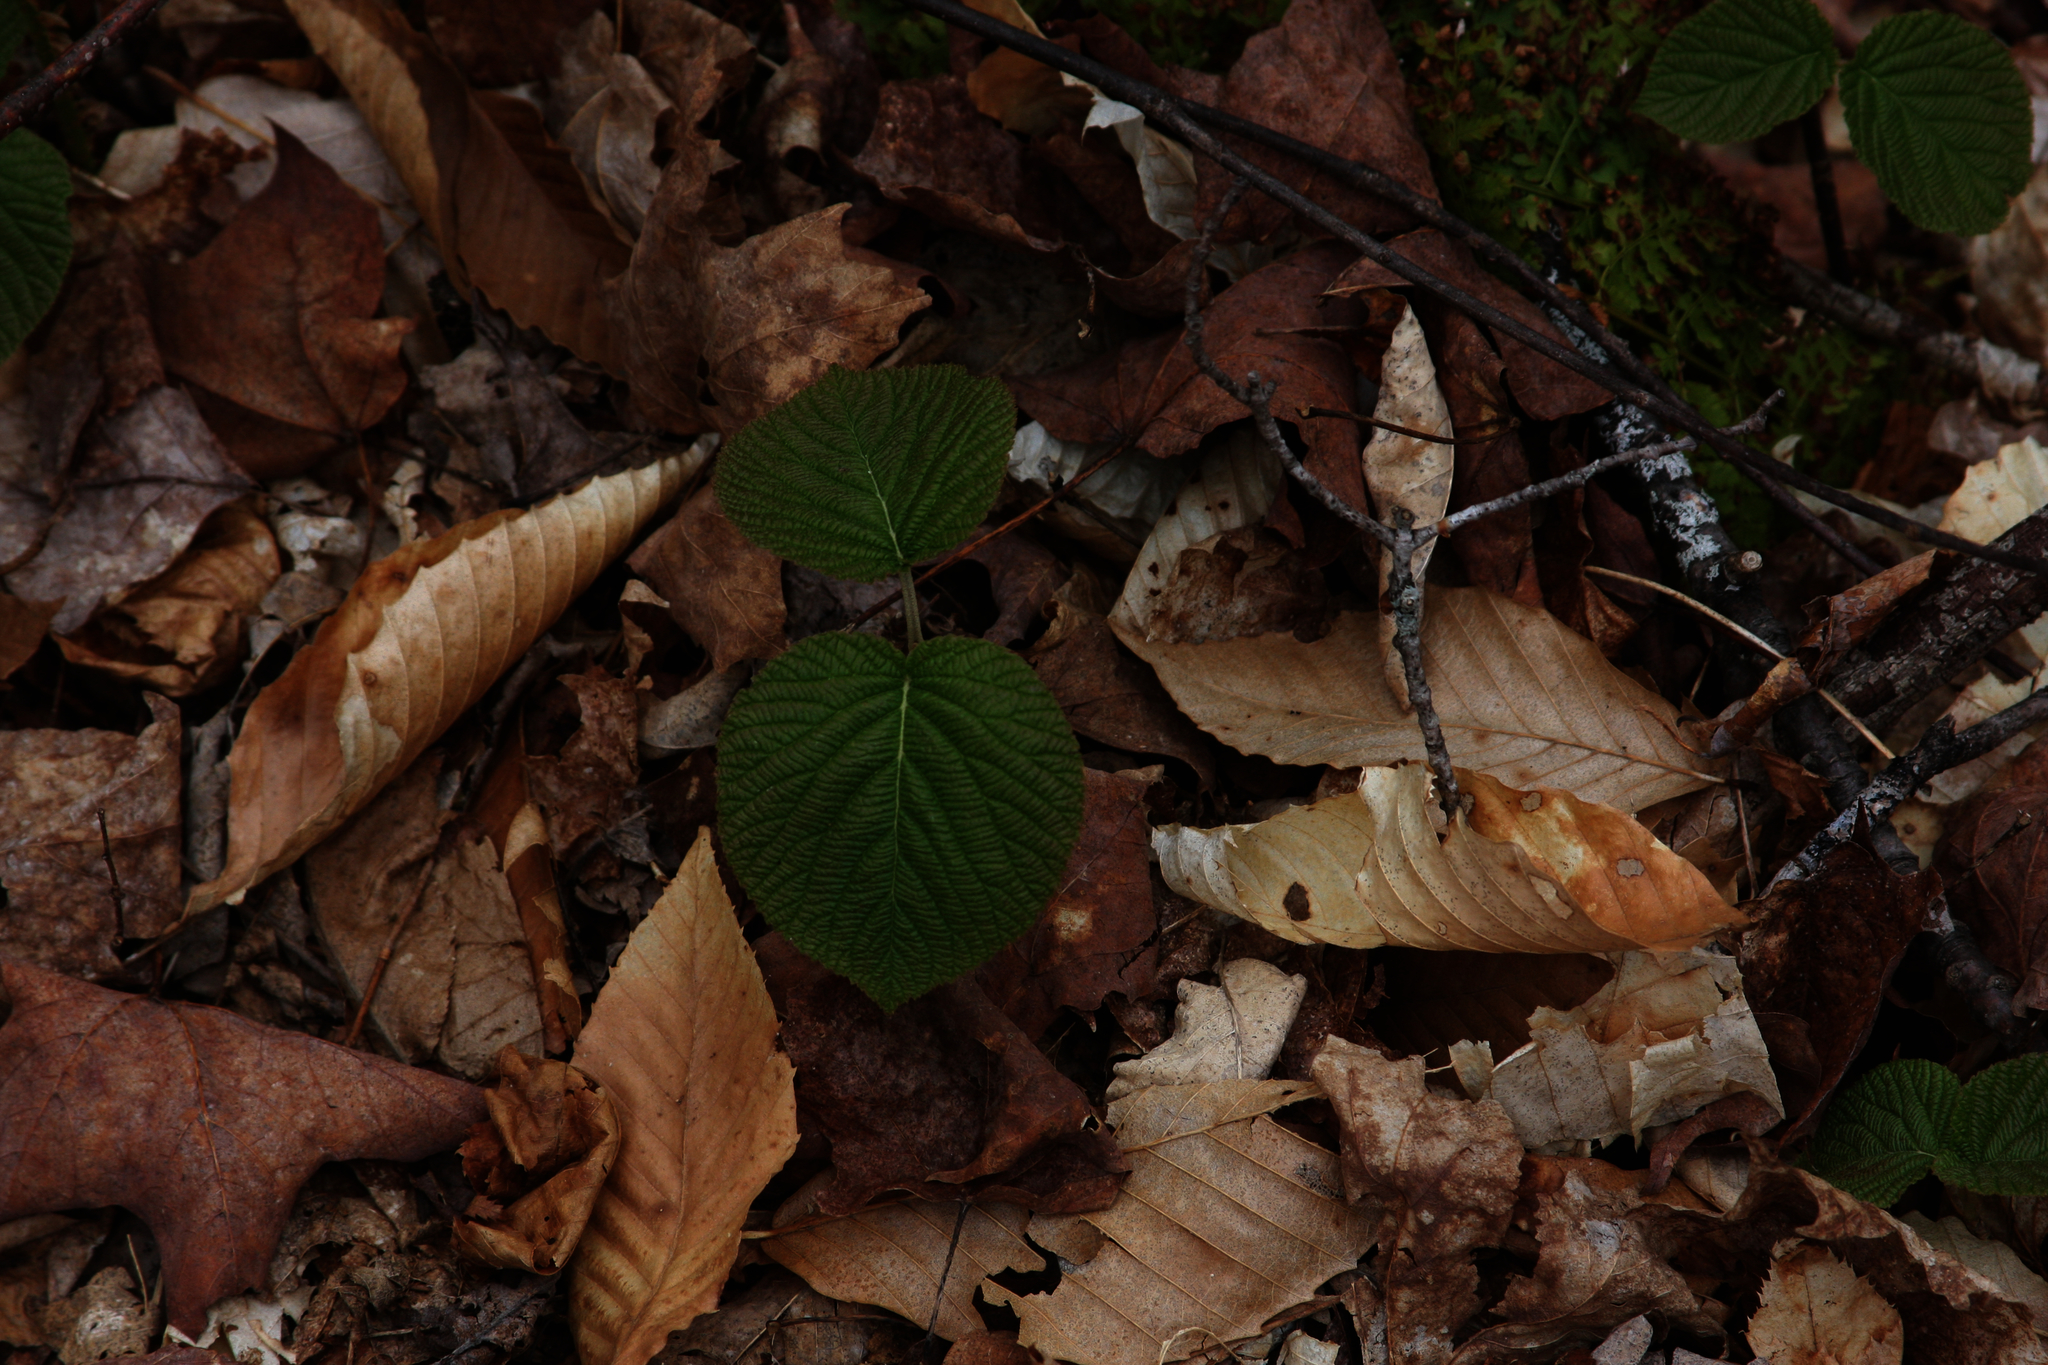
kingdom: Plantae
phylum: Tracheophyta
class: Magnoliopsida
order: Dipsacales
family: Viburnaceae
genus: Viburnum
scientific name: Viburnum lantanoides
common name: Hobblebush
